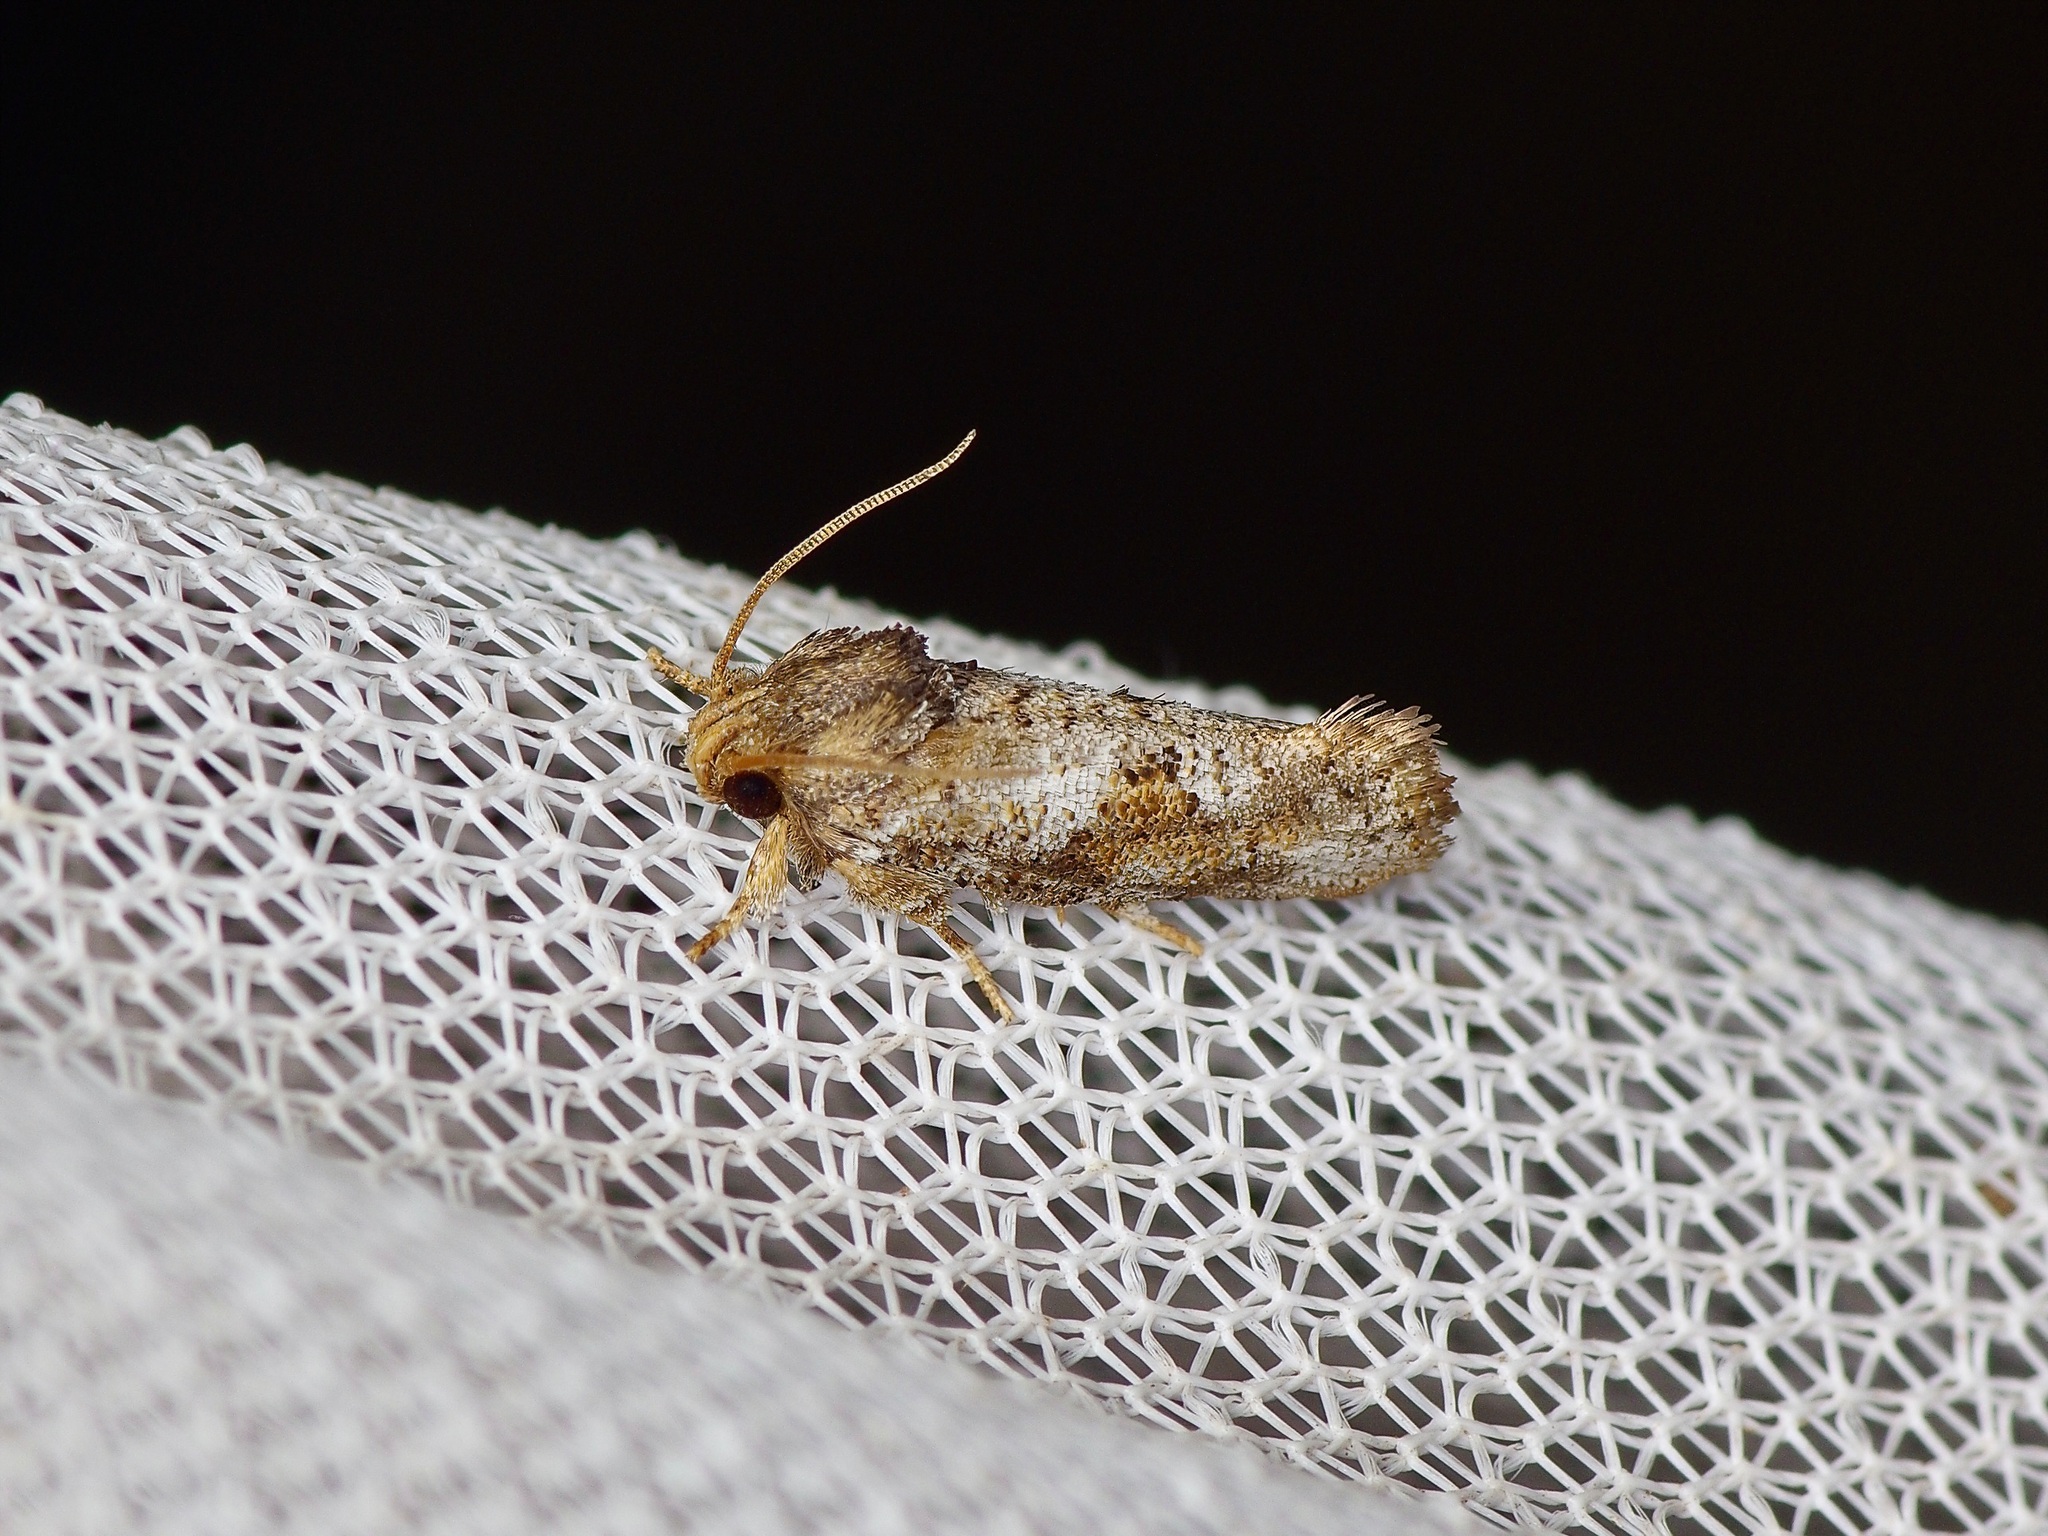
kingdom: Animalia
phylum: Arthropoda
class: Insecta
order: Lepidoptera
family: Tineidae
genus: Acrolophus
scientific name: Acrolophus piger
